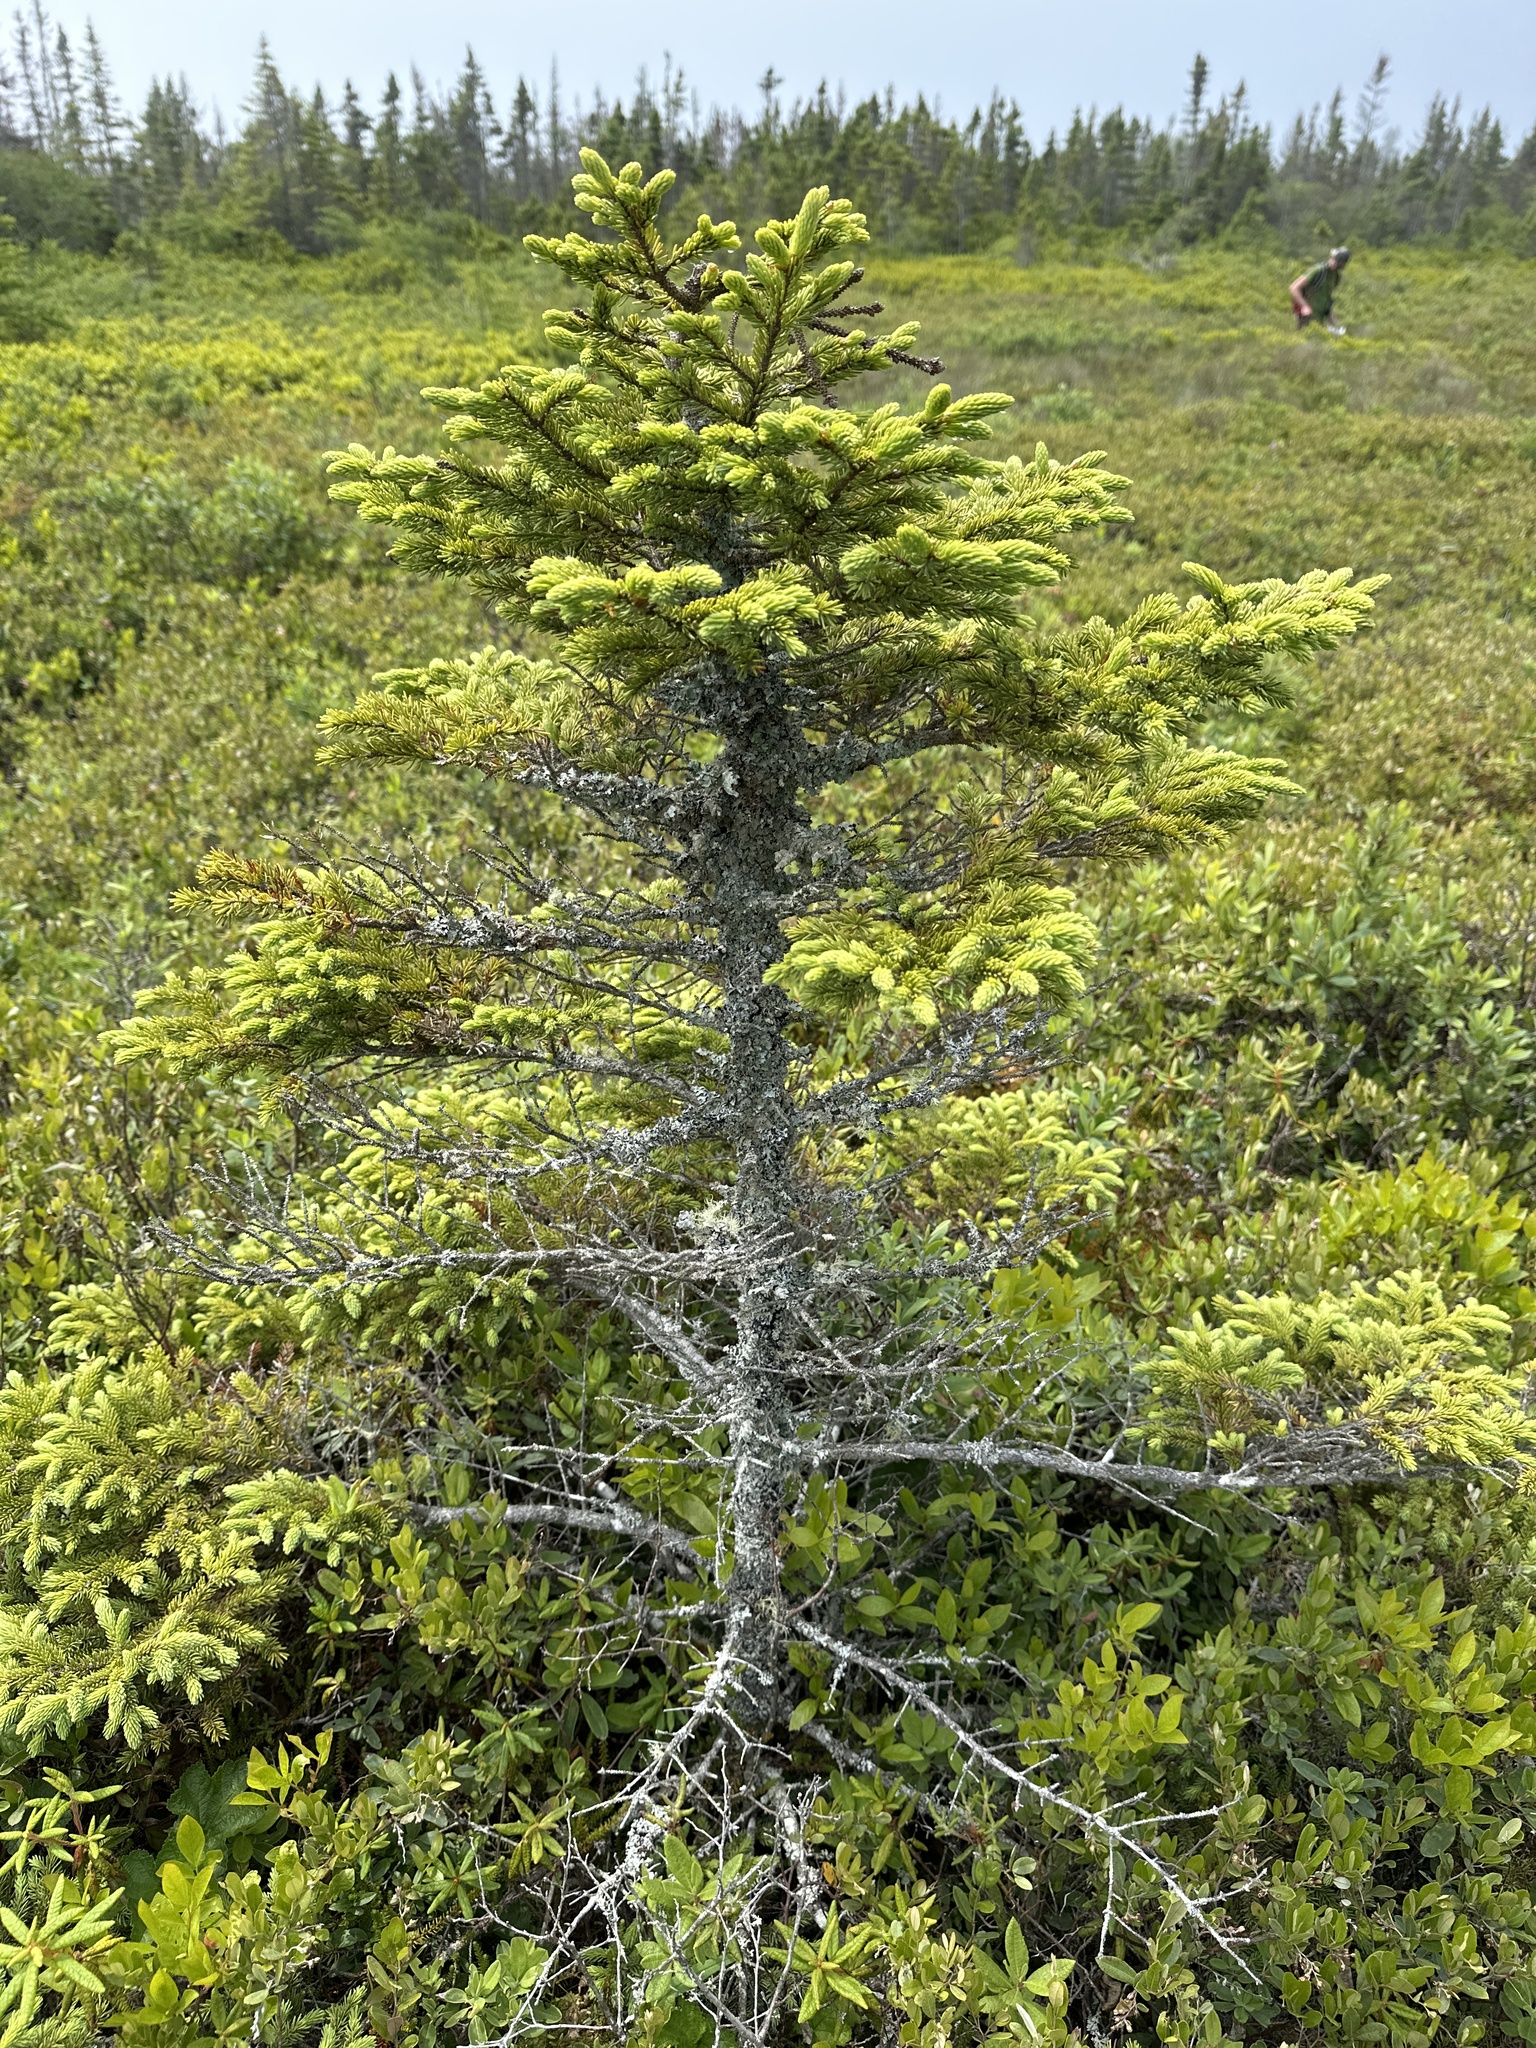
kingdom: Plantae
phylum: Tracheophyta
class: Pinopsida
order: Pinales
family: Pinaceae
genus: Picea
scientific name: Picea mariana
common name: Black spruce
